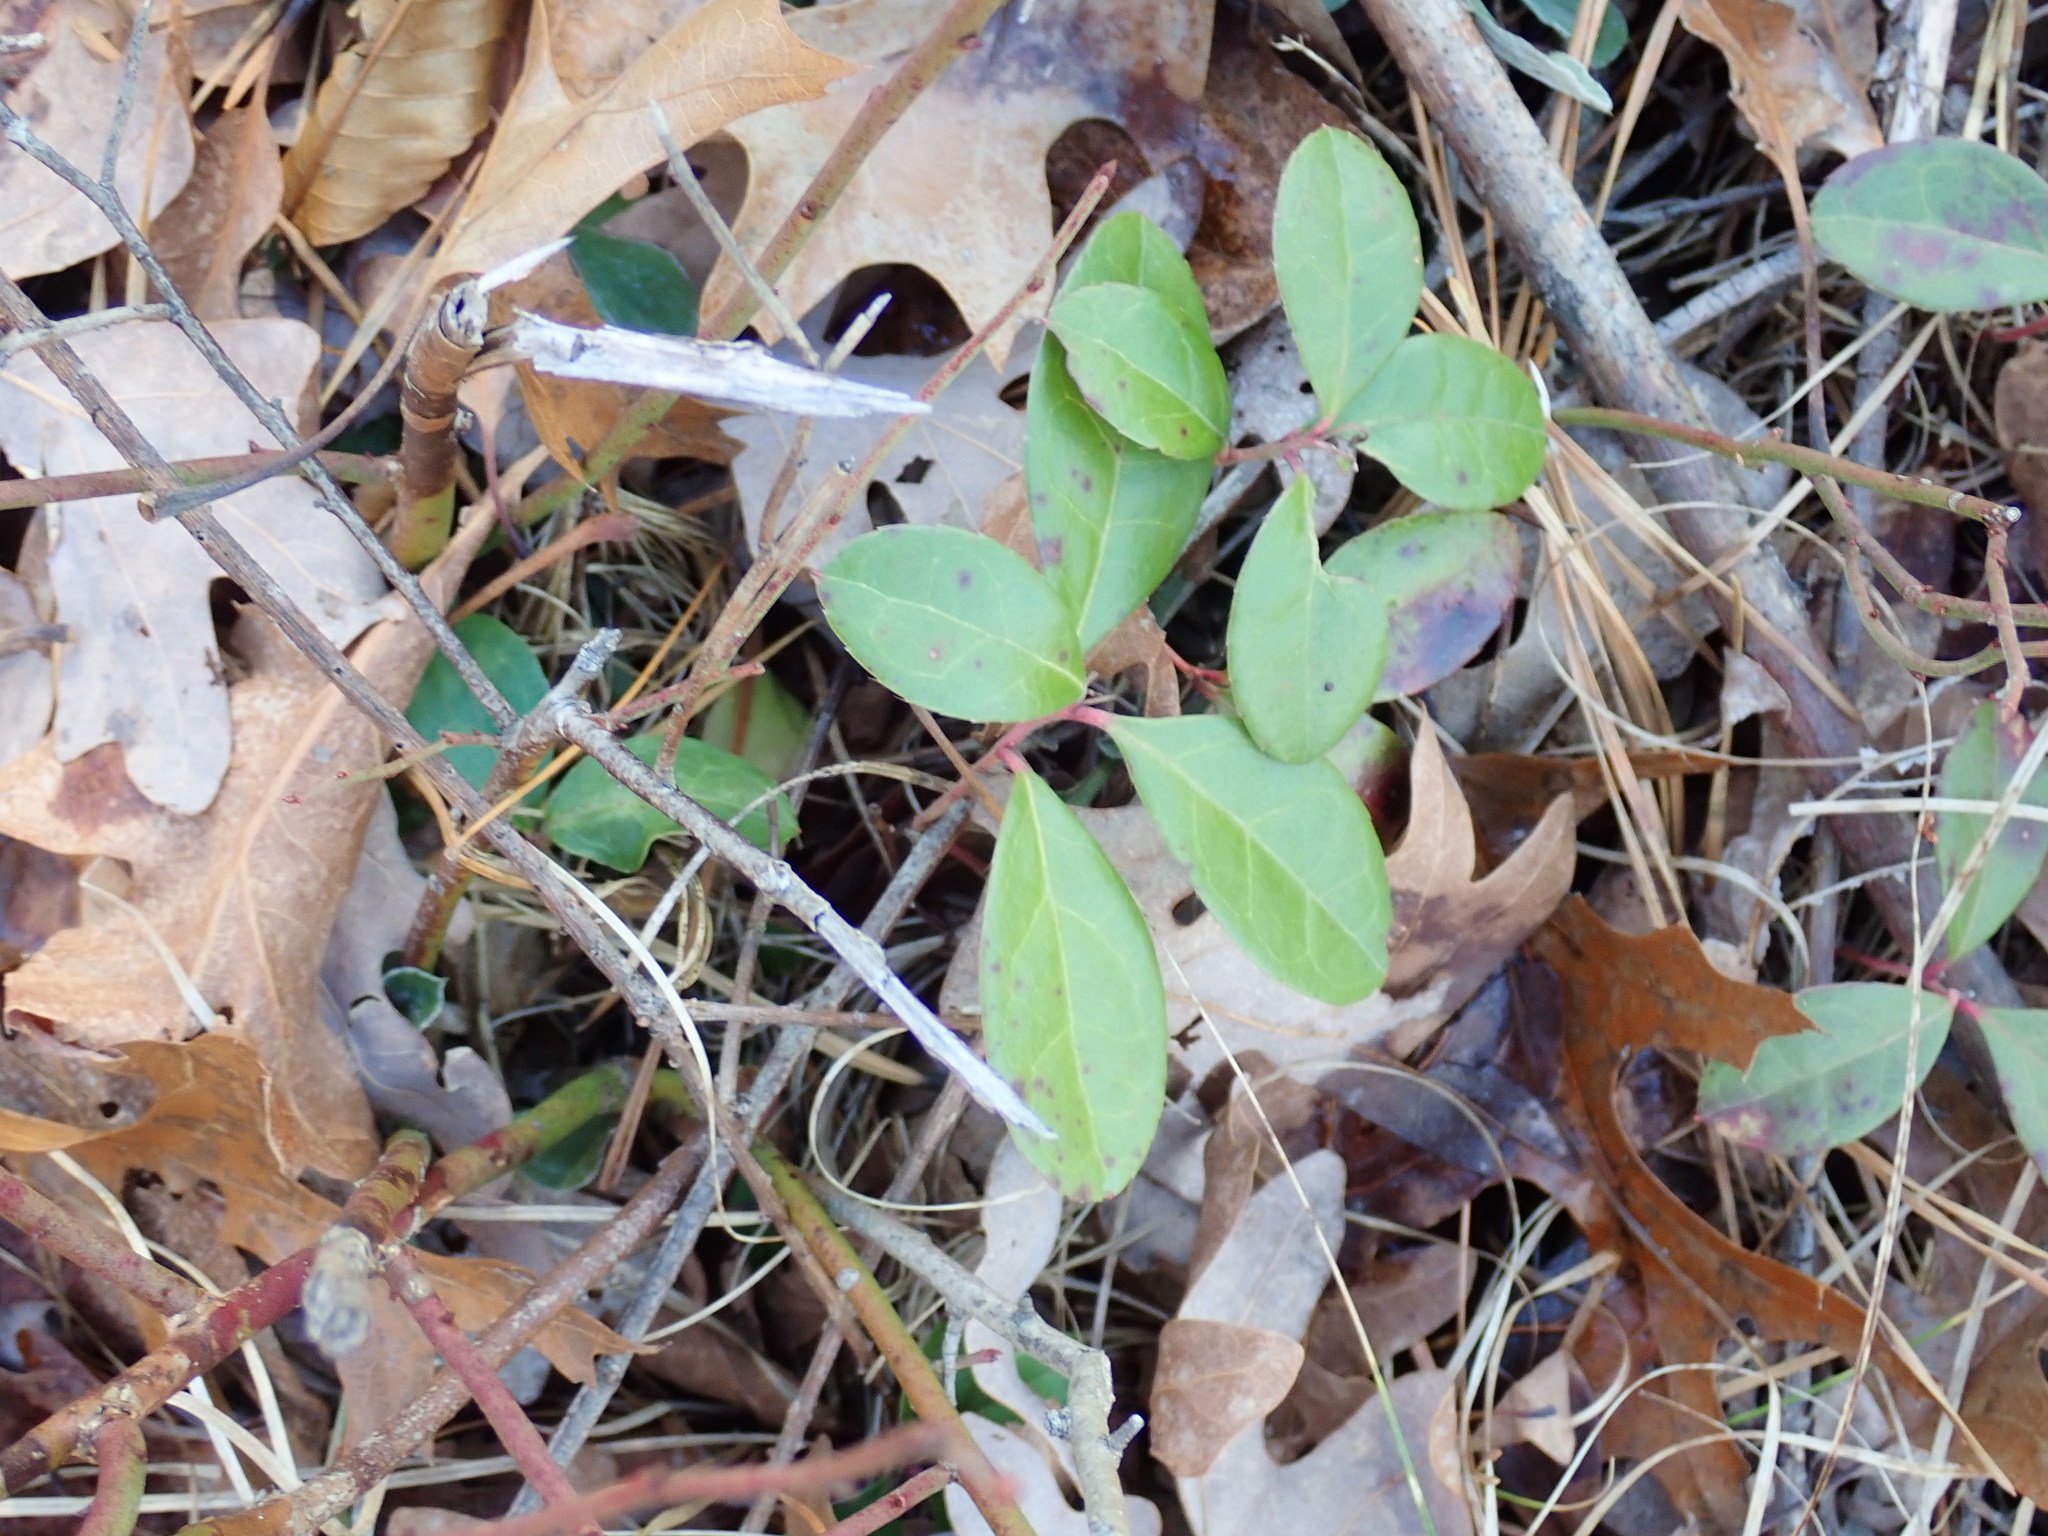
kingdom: Plantae
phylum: Tracheophyta
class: Magnoliopsida
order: Ericales
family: Ericaceae
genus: Gaultheria
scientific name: Gaultheria procumbens
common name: Checkerberry
